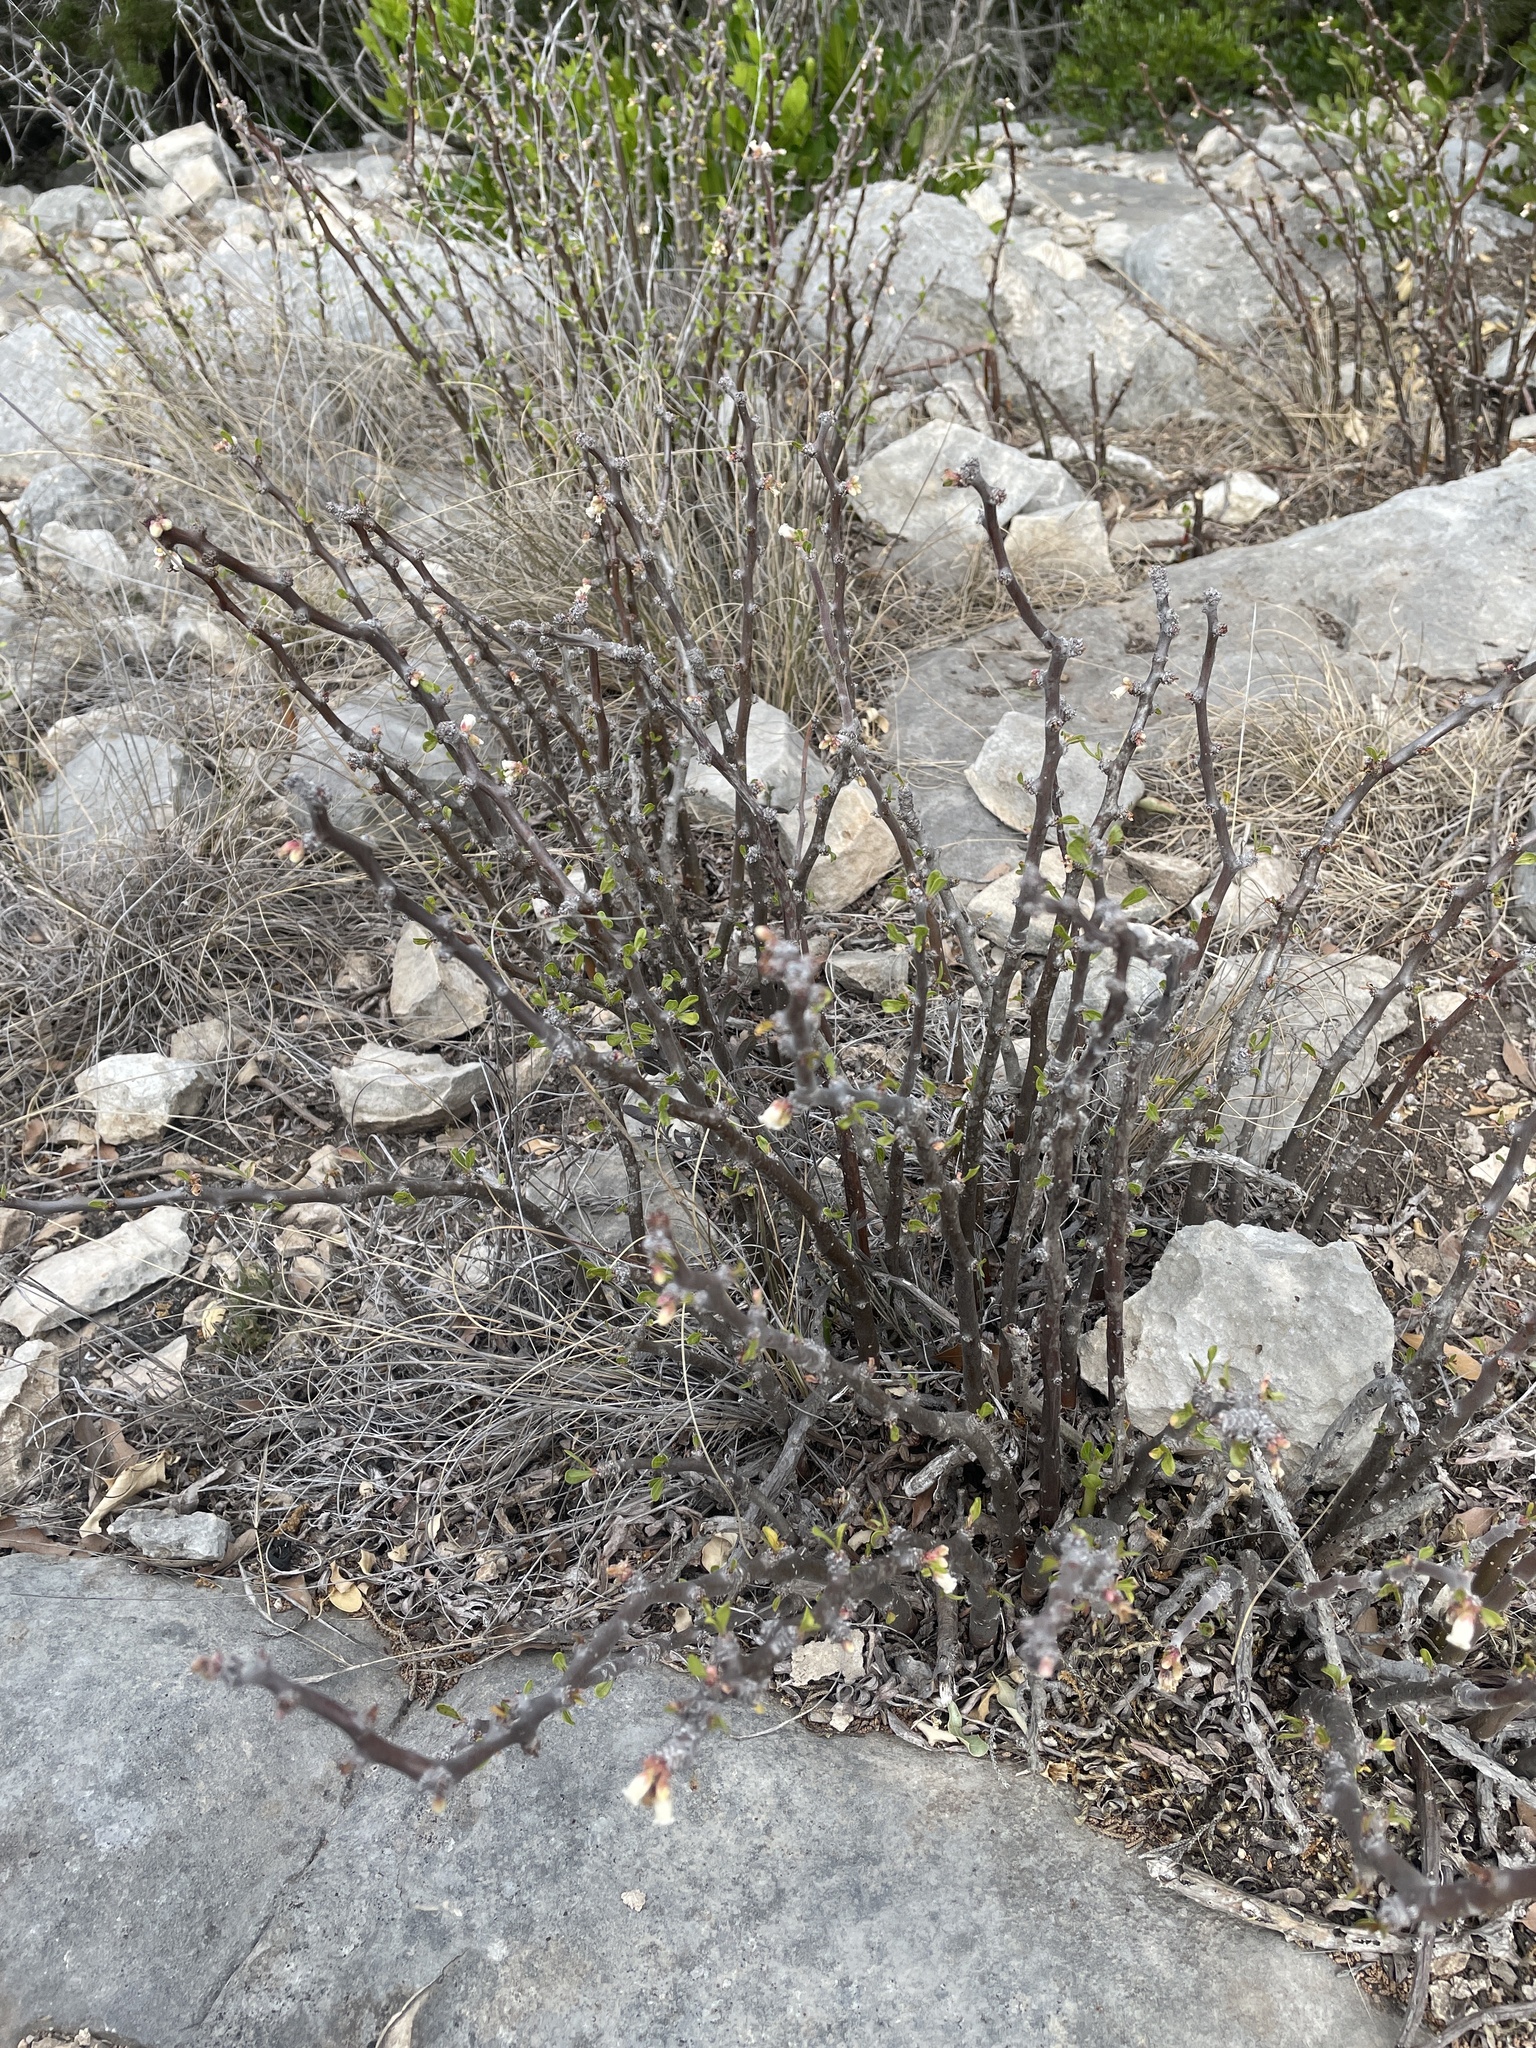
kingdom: Plantae
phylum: Tracheophyta
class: Magnoliopsida
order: Malpighiales
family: Euphorbiaceae
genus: Jatropha
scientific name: Jatropha dioica
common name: Leatherstem
